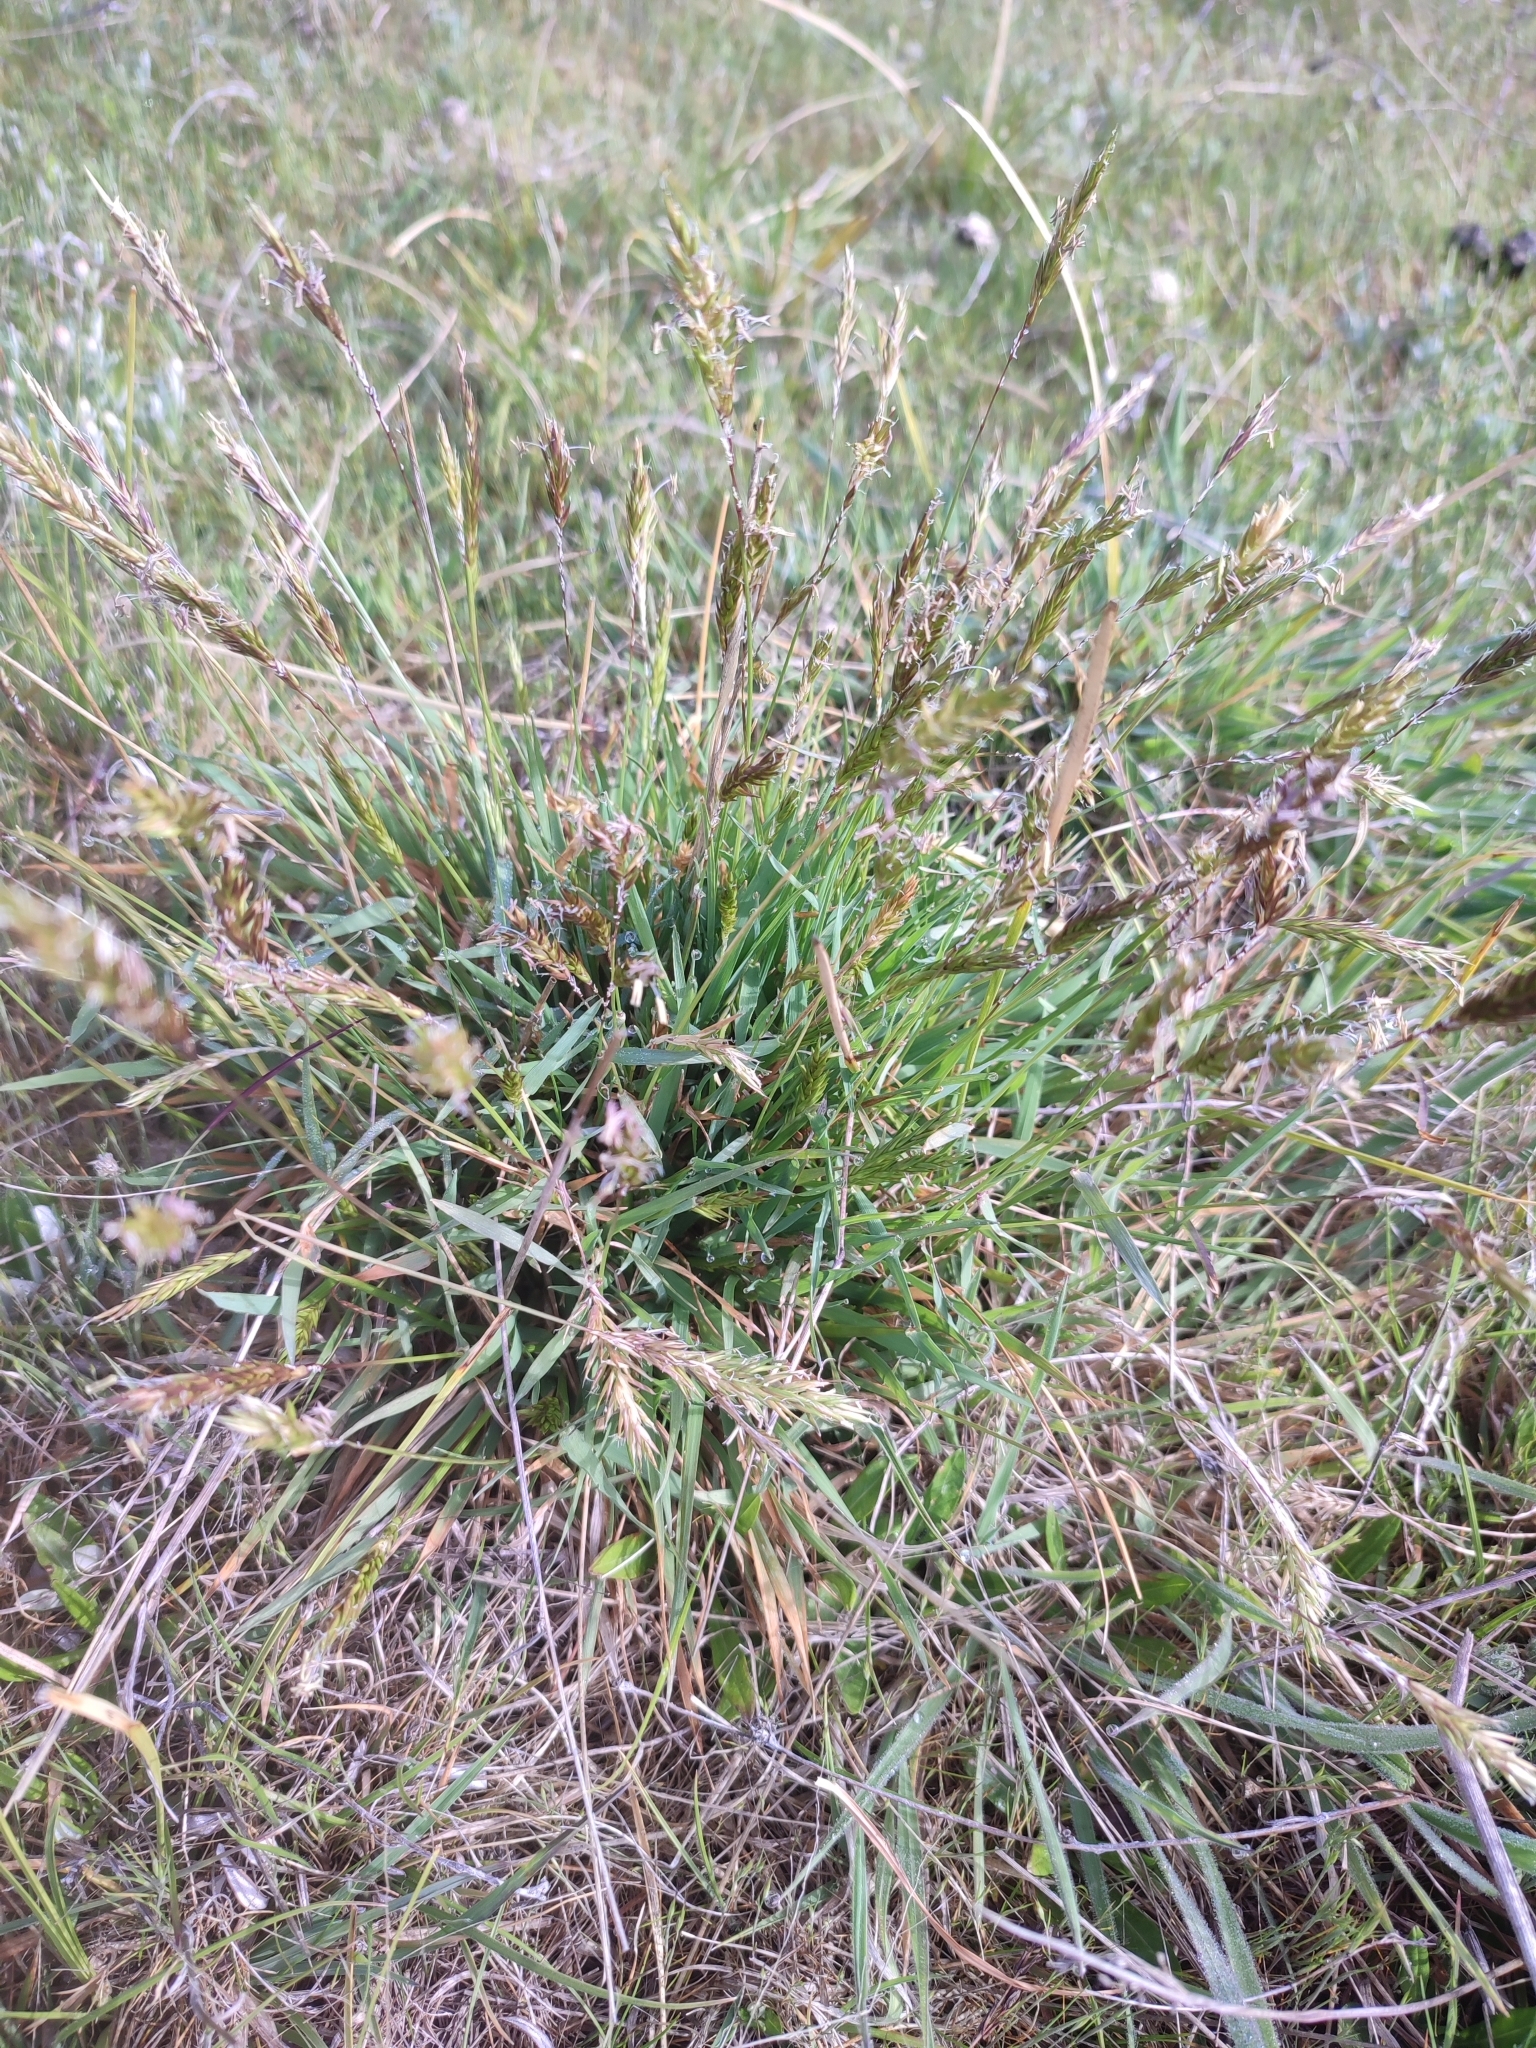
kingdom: Plantae
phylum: Tracheophyta
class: Liliopsida
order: Poales
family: Poaceae
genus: Anthoxanthum
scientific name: Anthoxanthum odoratum
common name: Sweet vernalgrass
